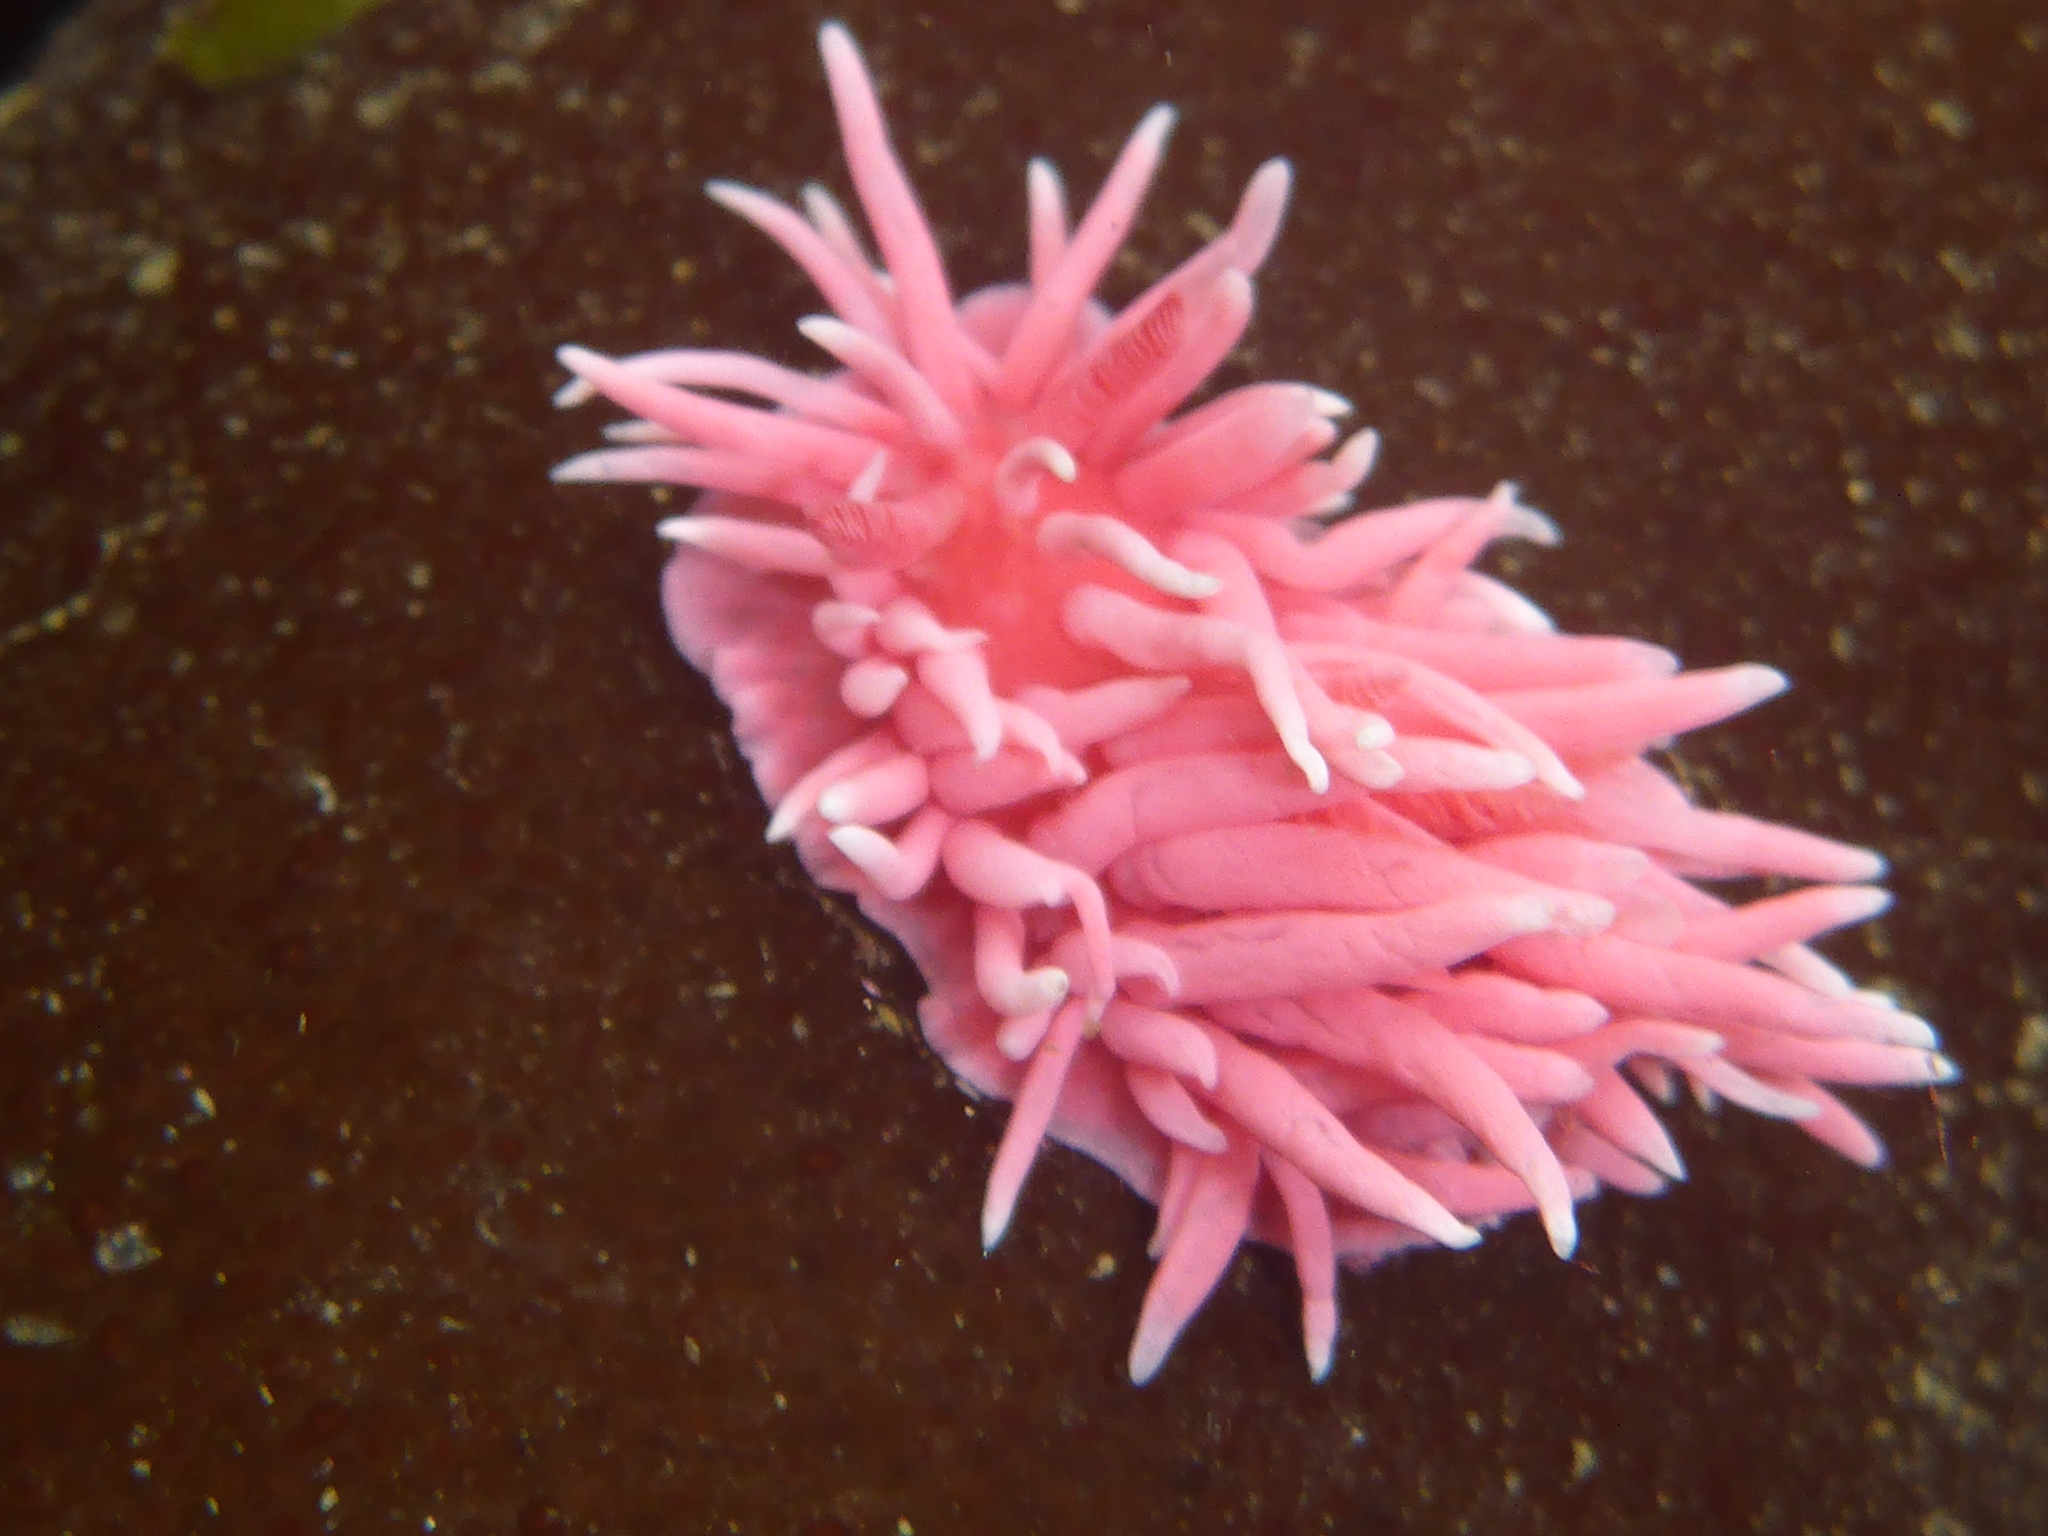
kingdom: Animalia
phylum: Mollusca
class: Gastropoda
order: Nudibranchia
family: Goniodorididae
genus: Okenia
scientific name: Okenia
